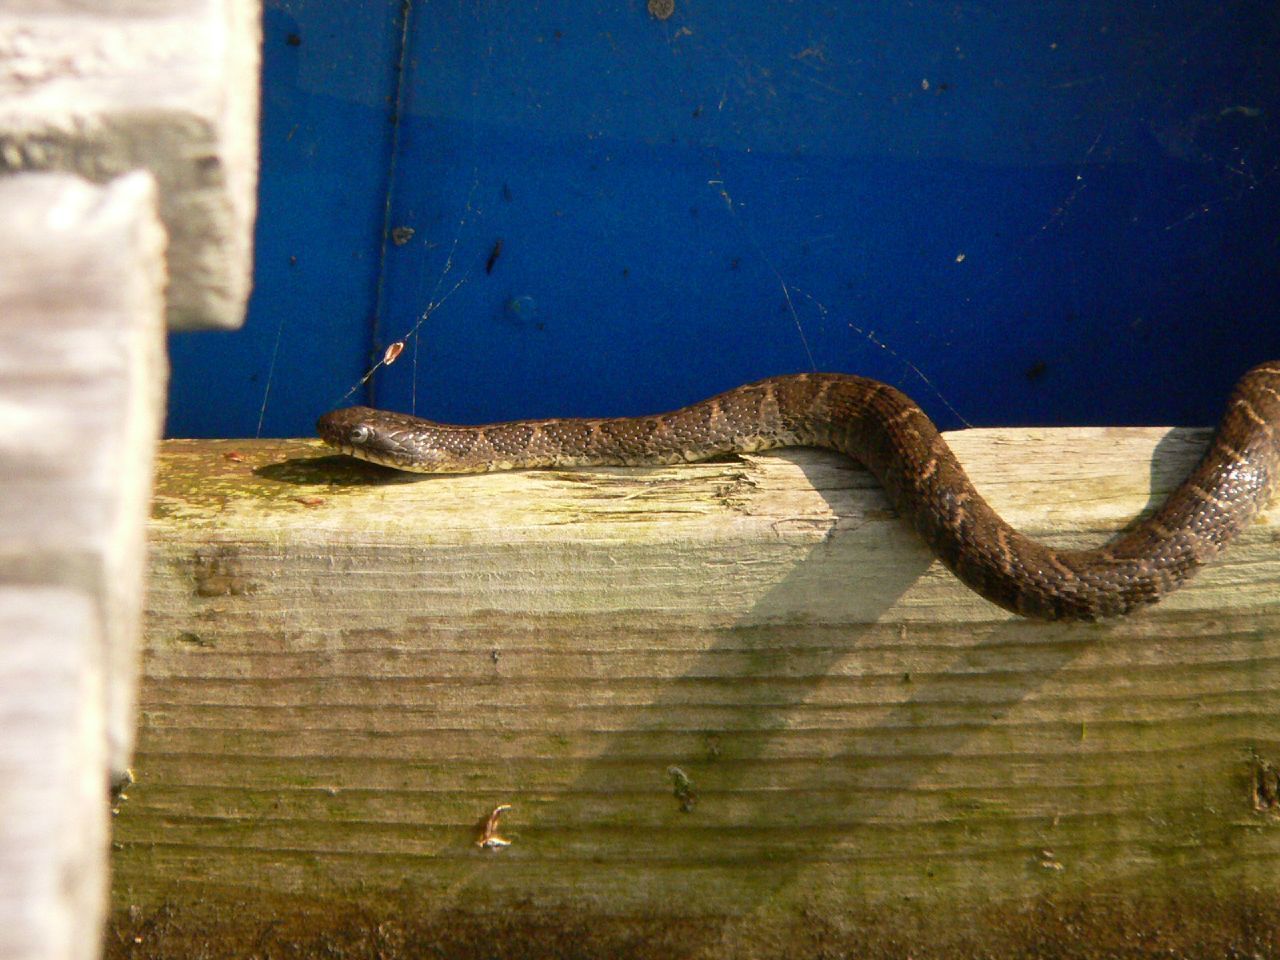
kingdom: Animalia
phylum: Chordata
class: Squamata
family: Colubridae
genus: Nerodia
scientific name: Nerodia sipedon
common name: Northern water snake
